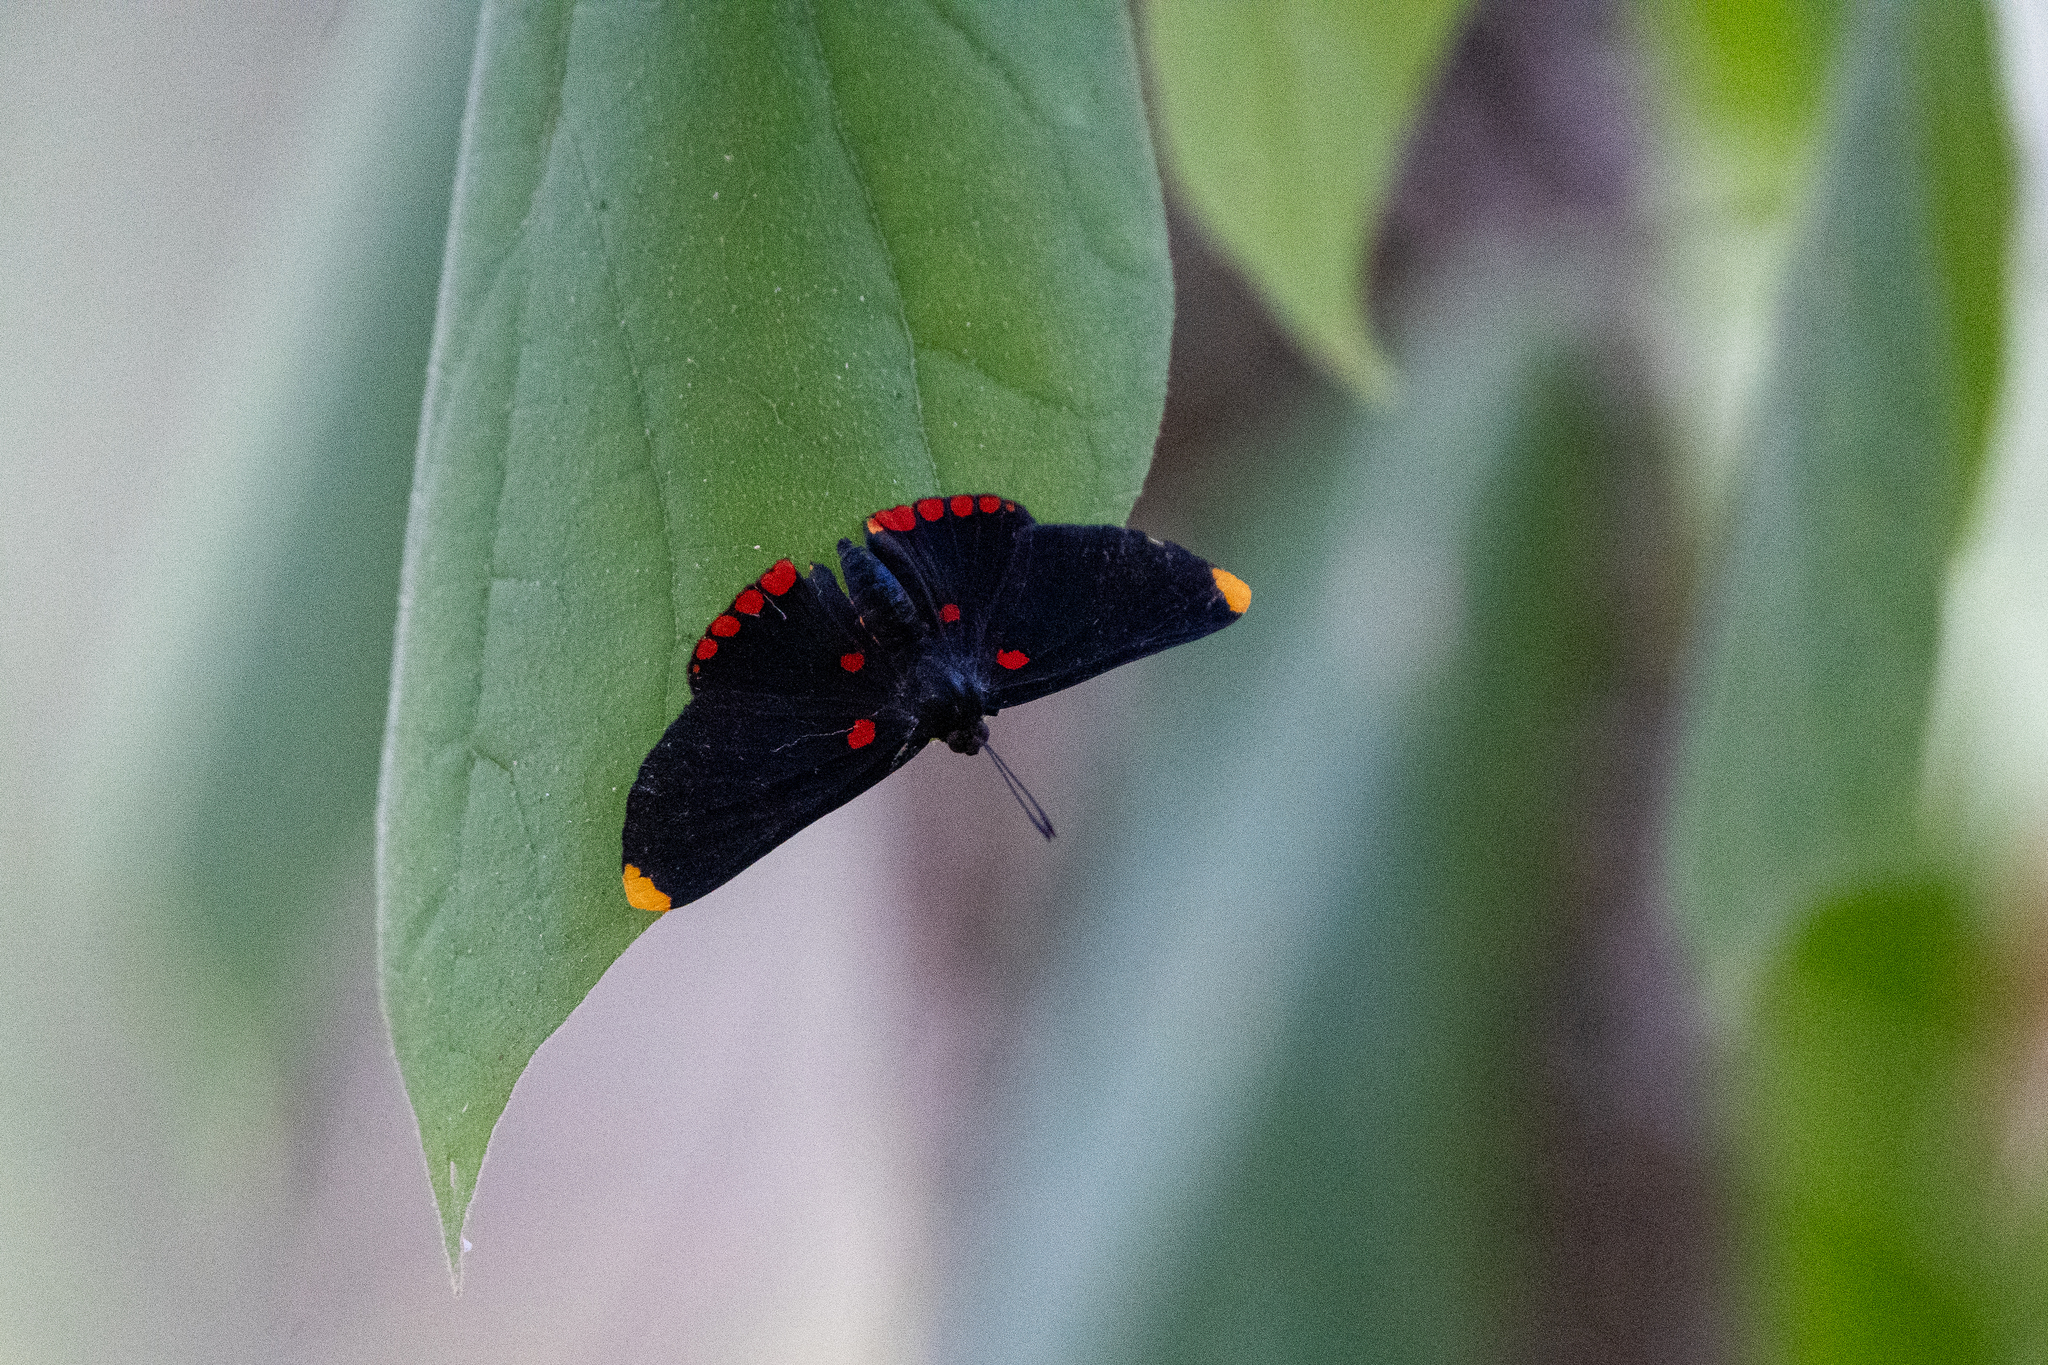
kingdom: Animalia
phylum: Arthropoda
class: Insecta
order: Lepidoptera
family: Lycaenidae
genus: Melanis
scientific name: Melanis pixe
